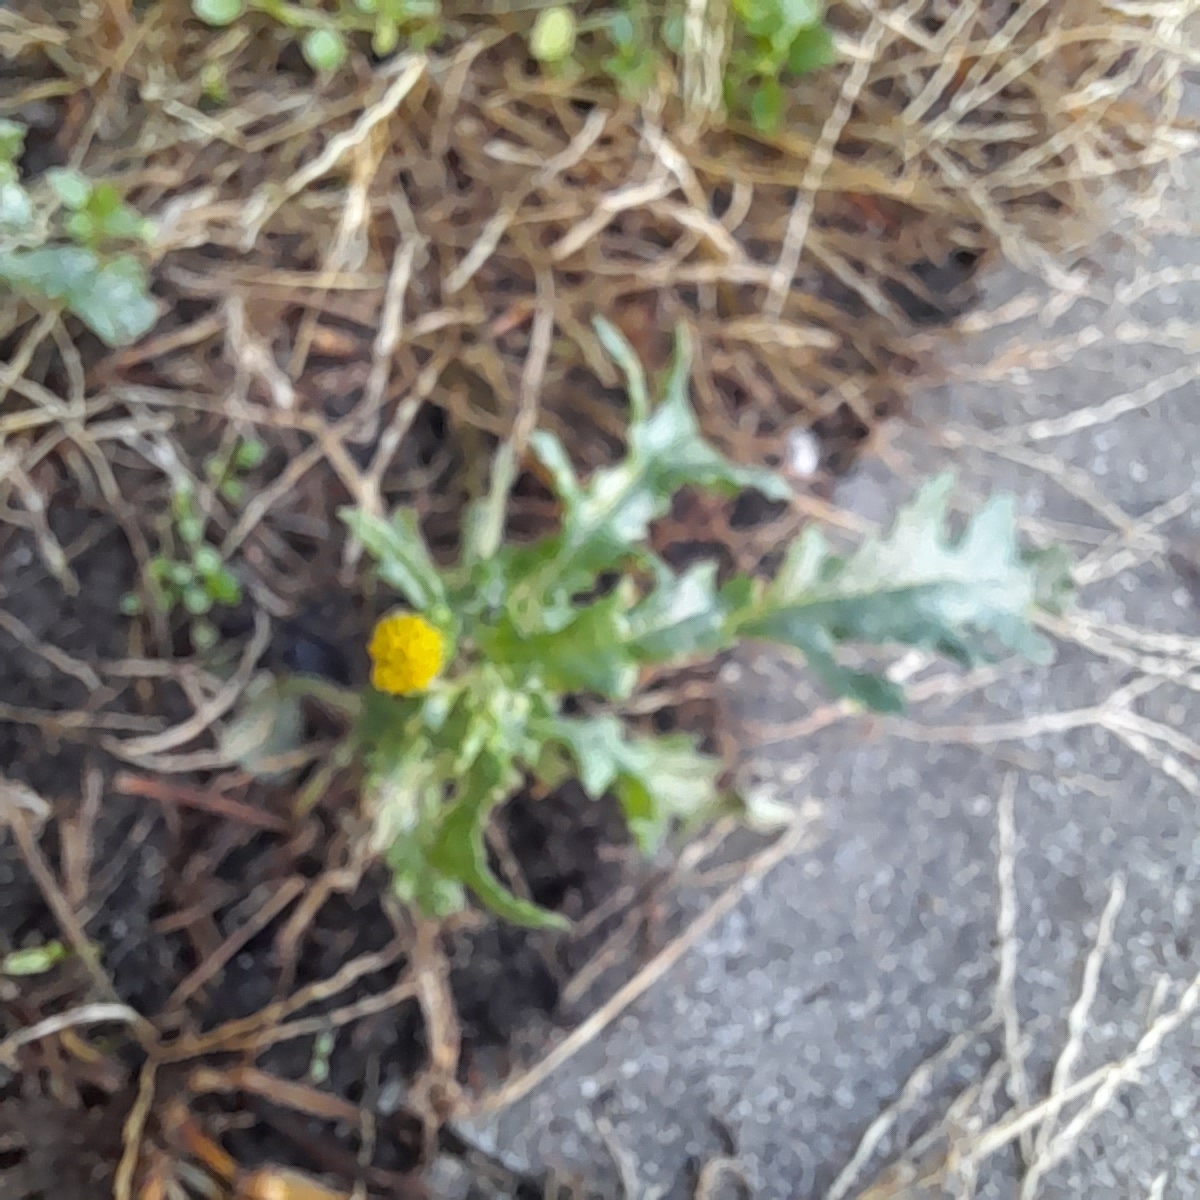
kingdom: Plantae
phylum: Tracheophyta
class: Magnoliopsida
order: Asterales
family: Asteraceae
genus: Senecio
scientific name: Senecio vulgaris
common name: Old-man-in-the-spring
